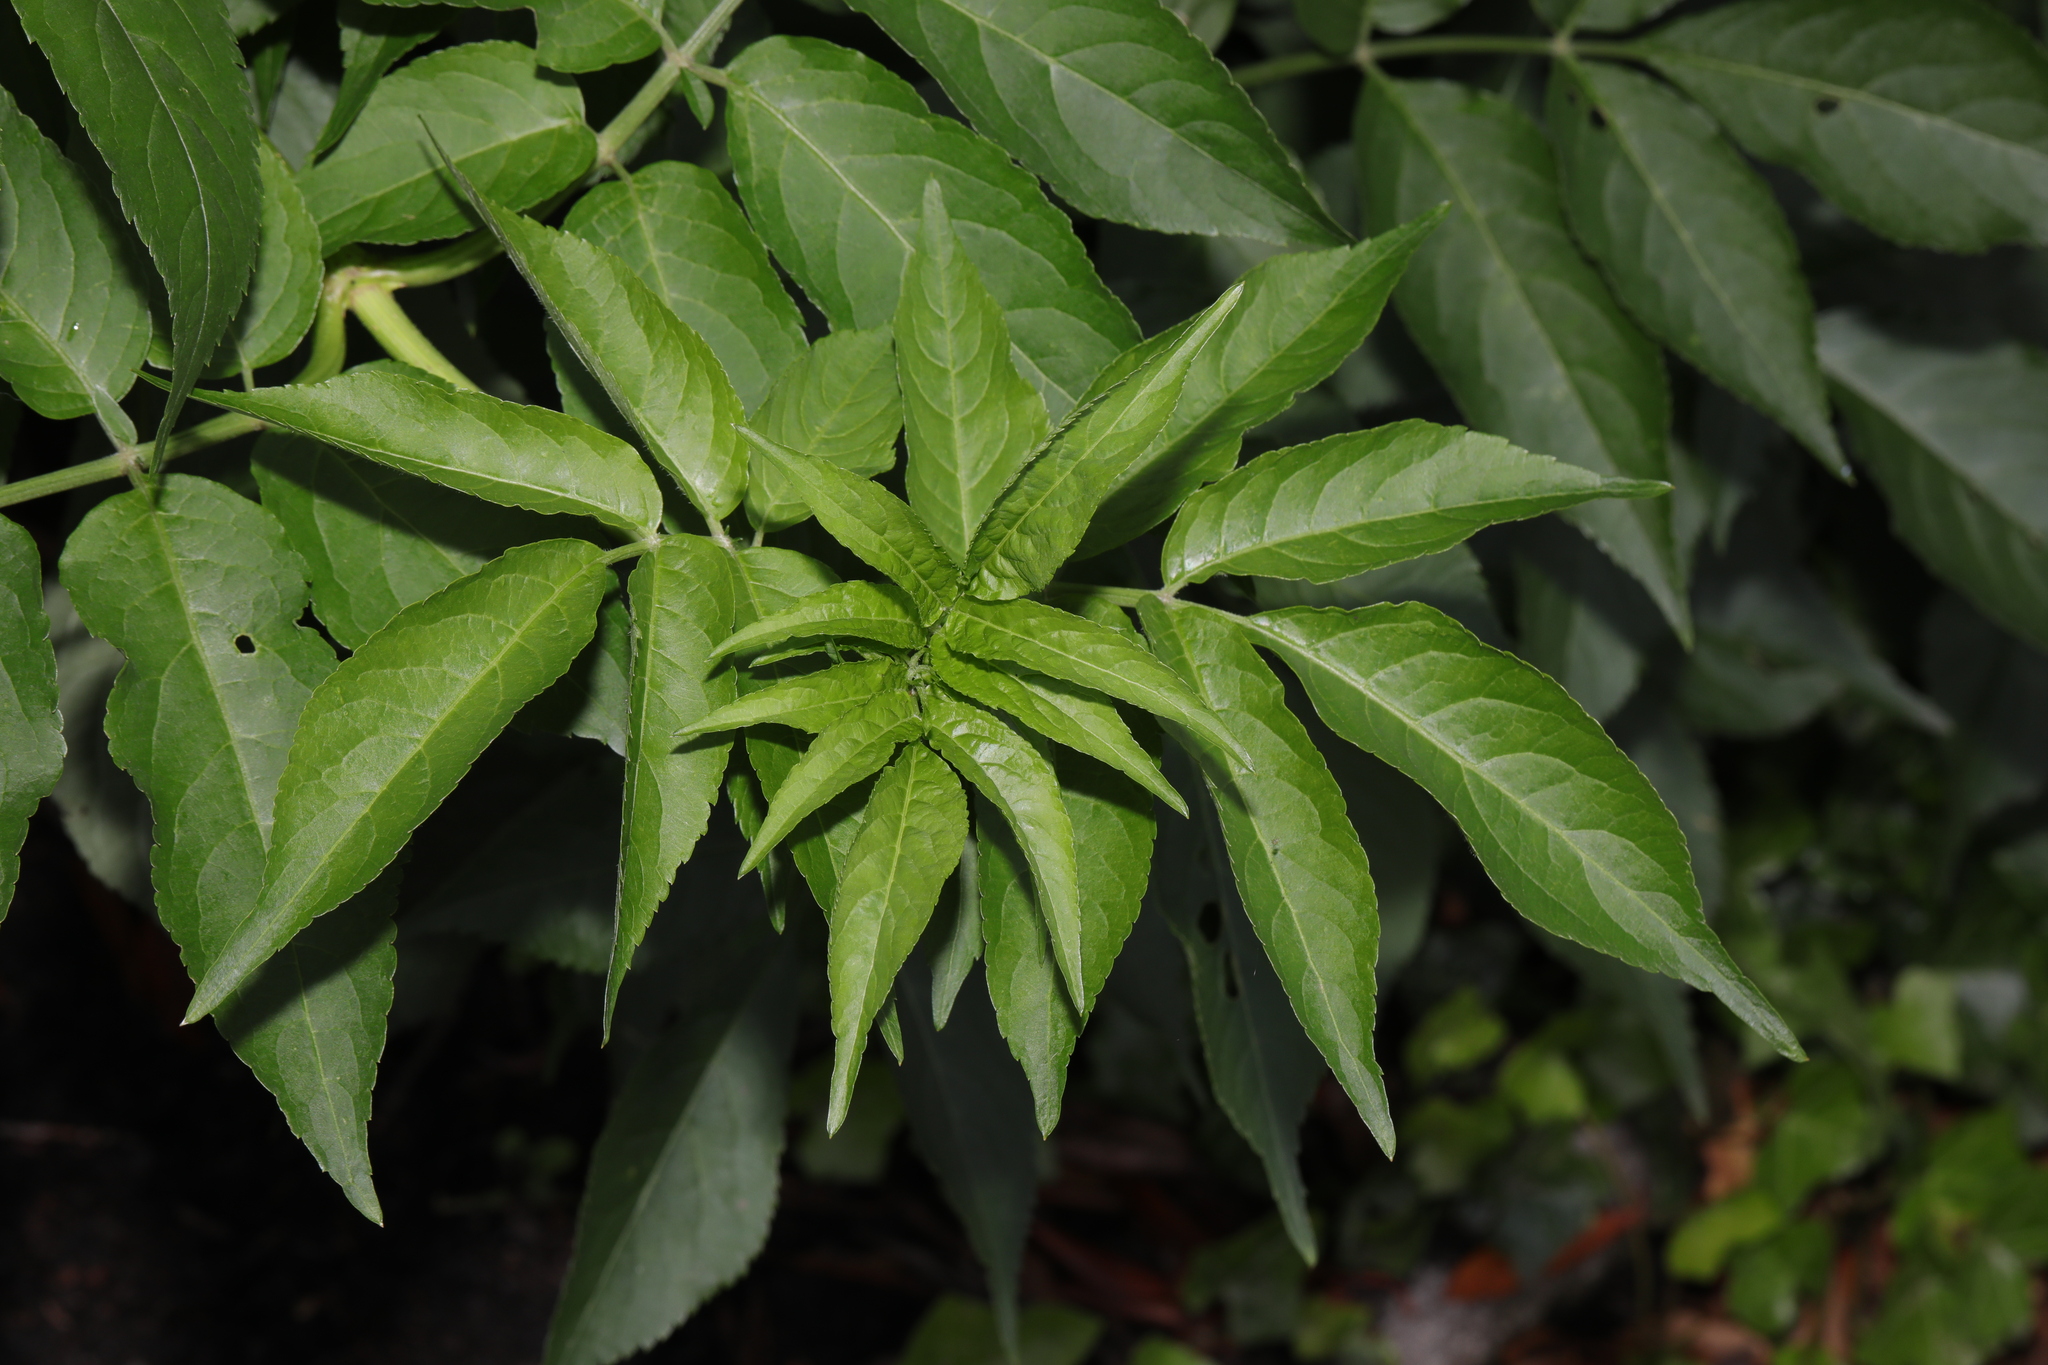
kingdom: Plantae
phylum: Tracheophyta
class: Magnoliopsida
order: Dipsacales
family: Viburnaceae
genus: Sambucus
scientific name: Sambucus nigra
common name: Elder
